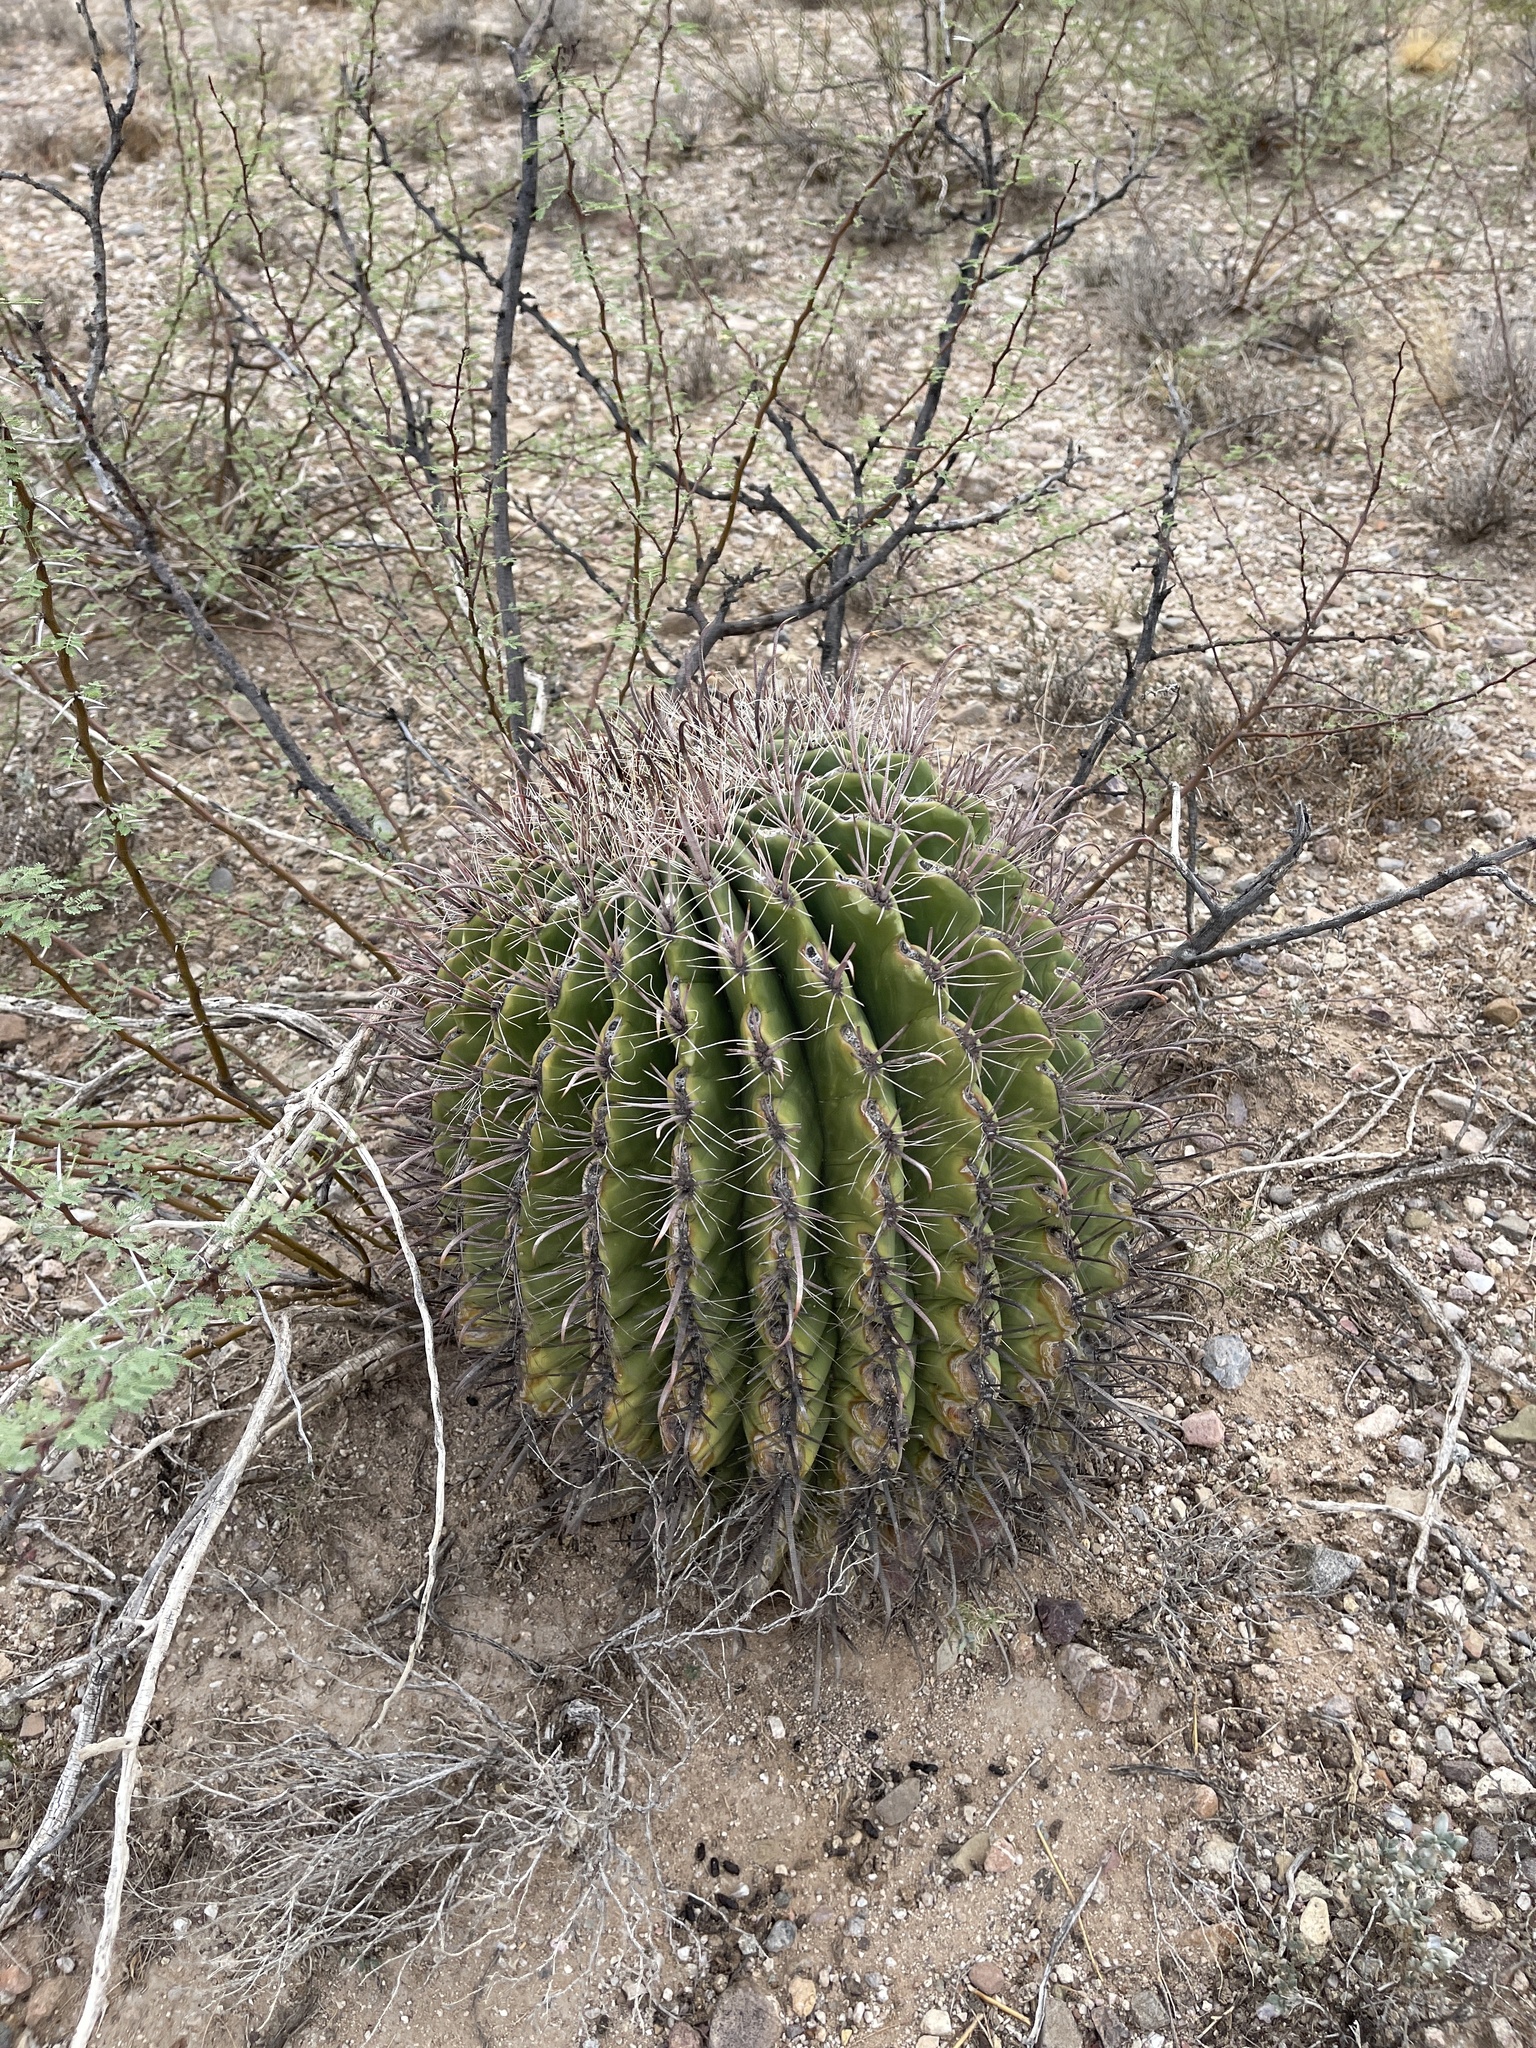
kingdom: Plantae
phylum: Tracheophyta
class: Magnoliopsida
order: Caryophyllales
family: Cactaceae
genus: Ferocactus
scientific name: Ferocactus wislizeni
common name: Candy barrel cactus
